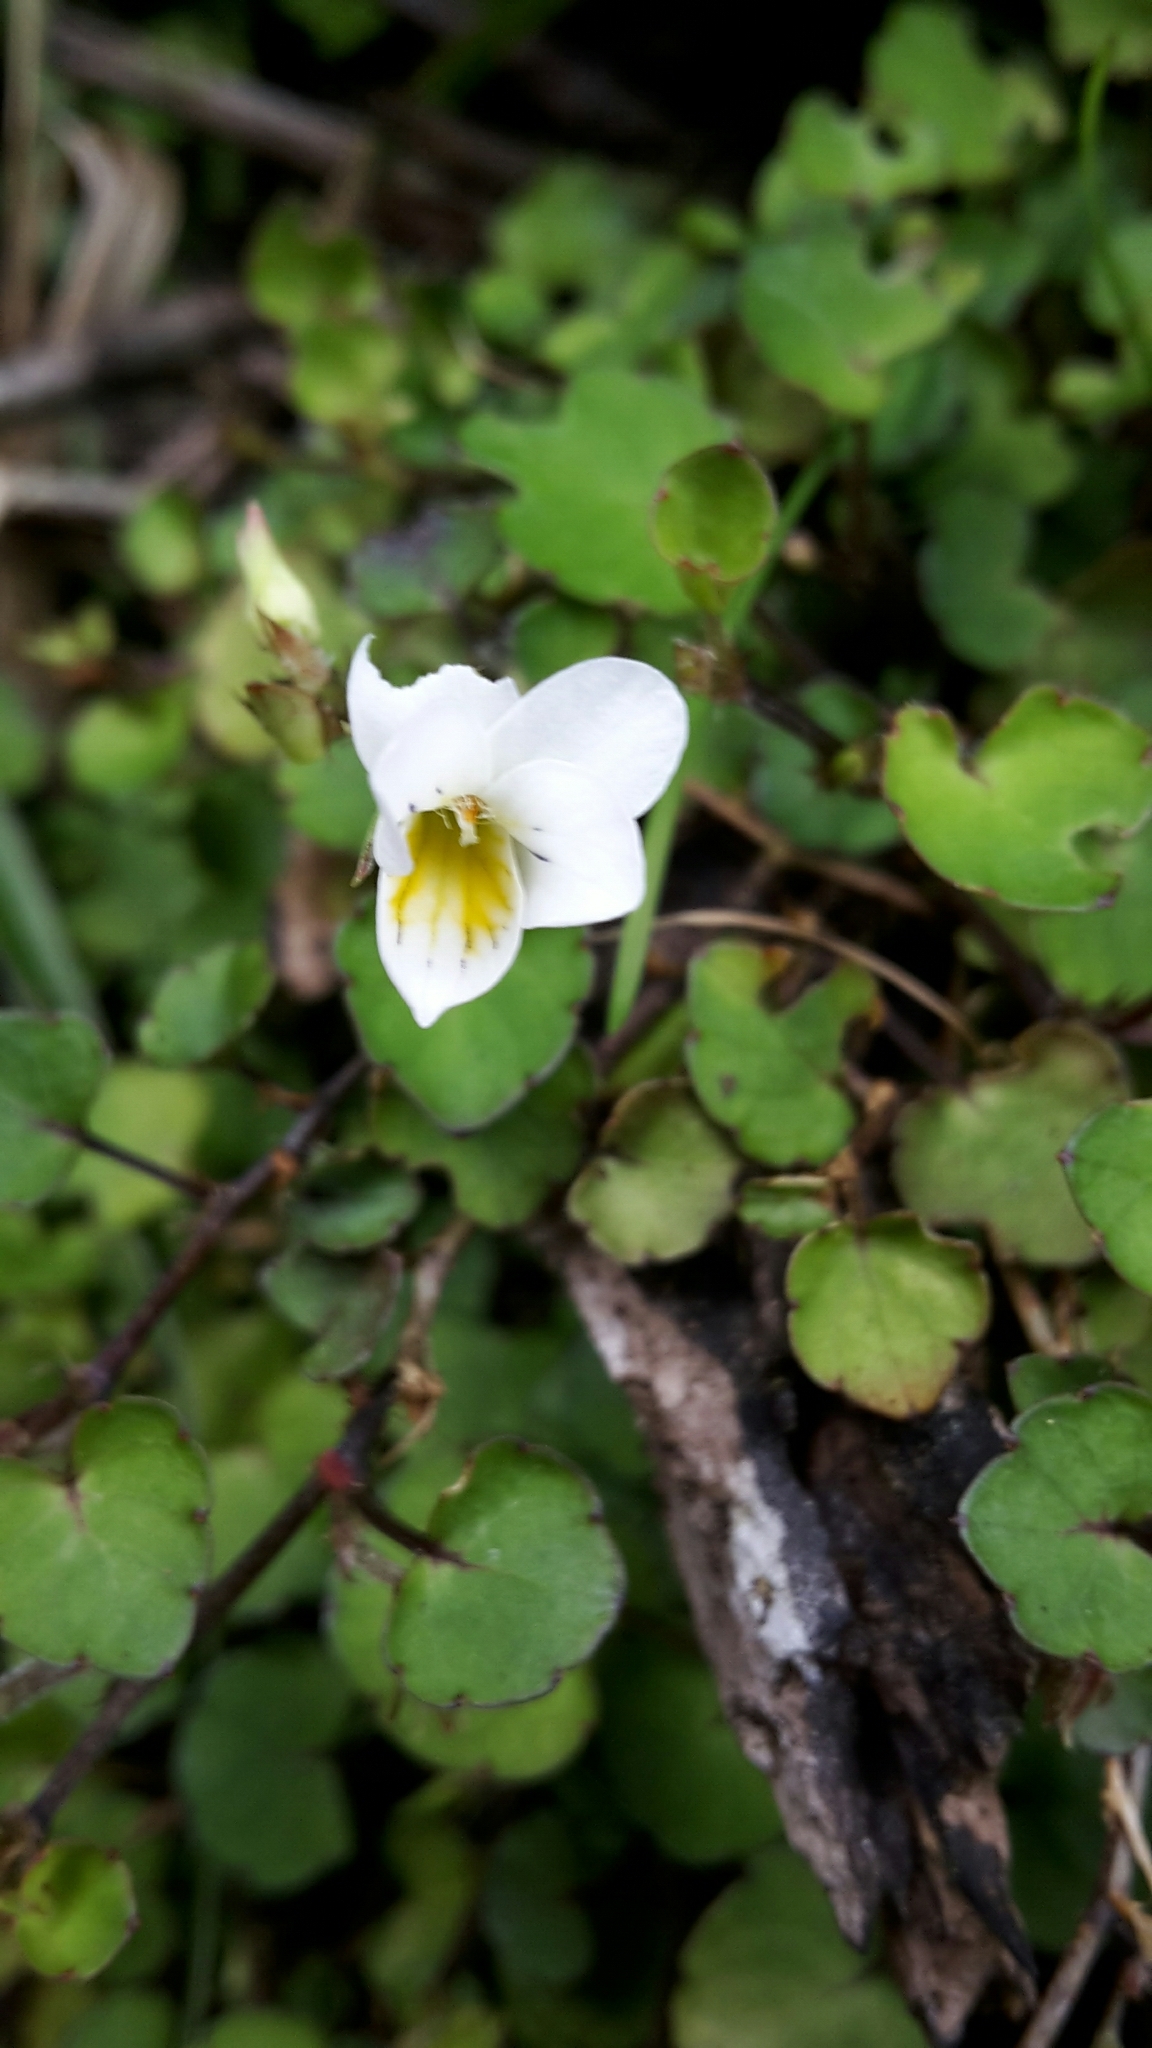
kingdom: Plantae
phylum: Tracheophyta
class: Magnoliopsida
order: Malpighiales
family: Violaceae
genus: Viola
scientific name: Viola filicaulis
